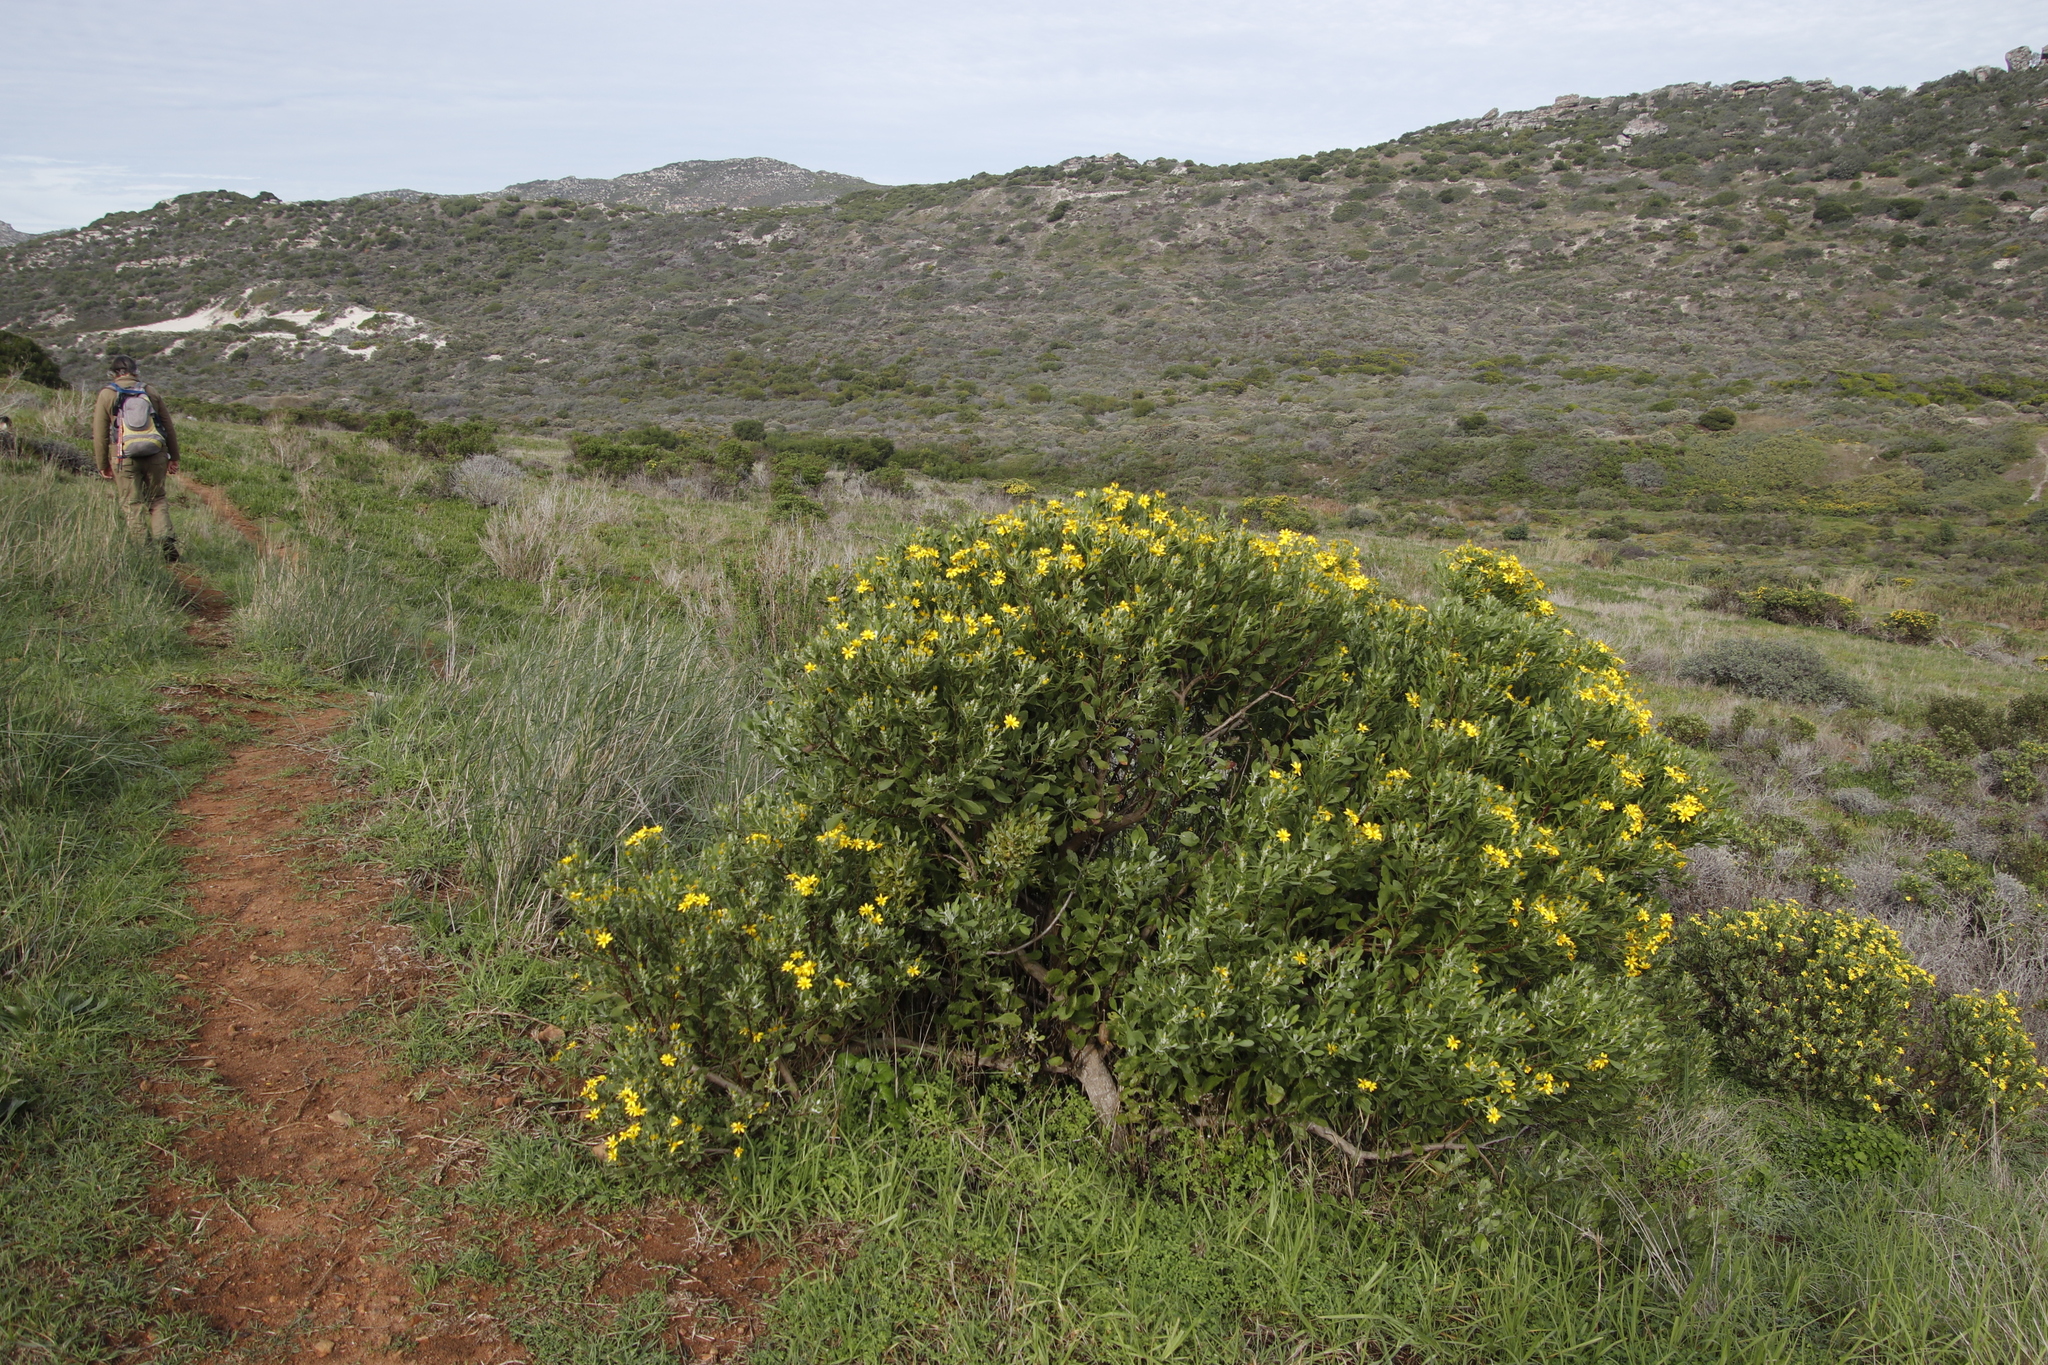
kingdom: Plantae
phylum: Tracheophyta
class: Magnoliopsida
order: Asterales
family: Asteraceae
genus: Osteospermum
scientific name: Osteospermum moniliferum
